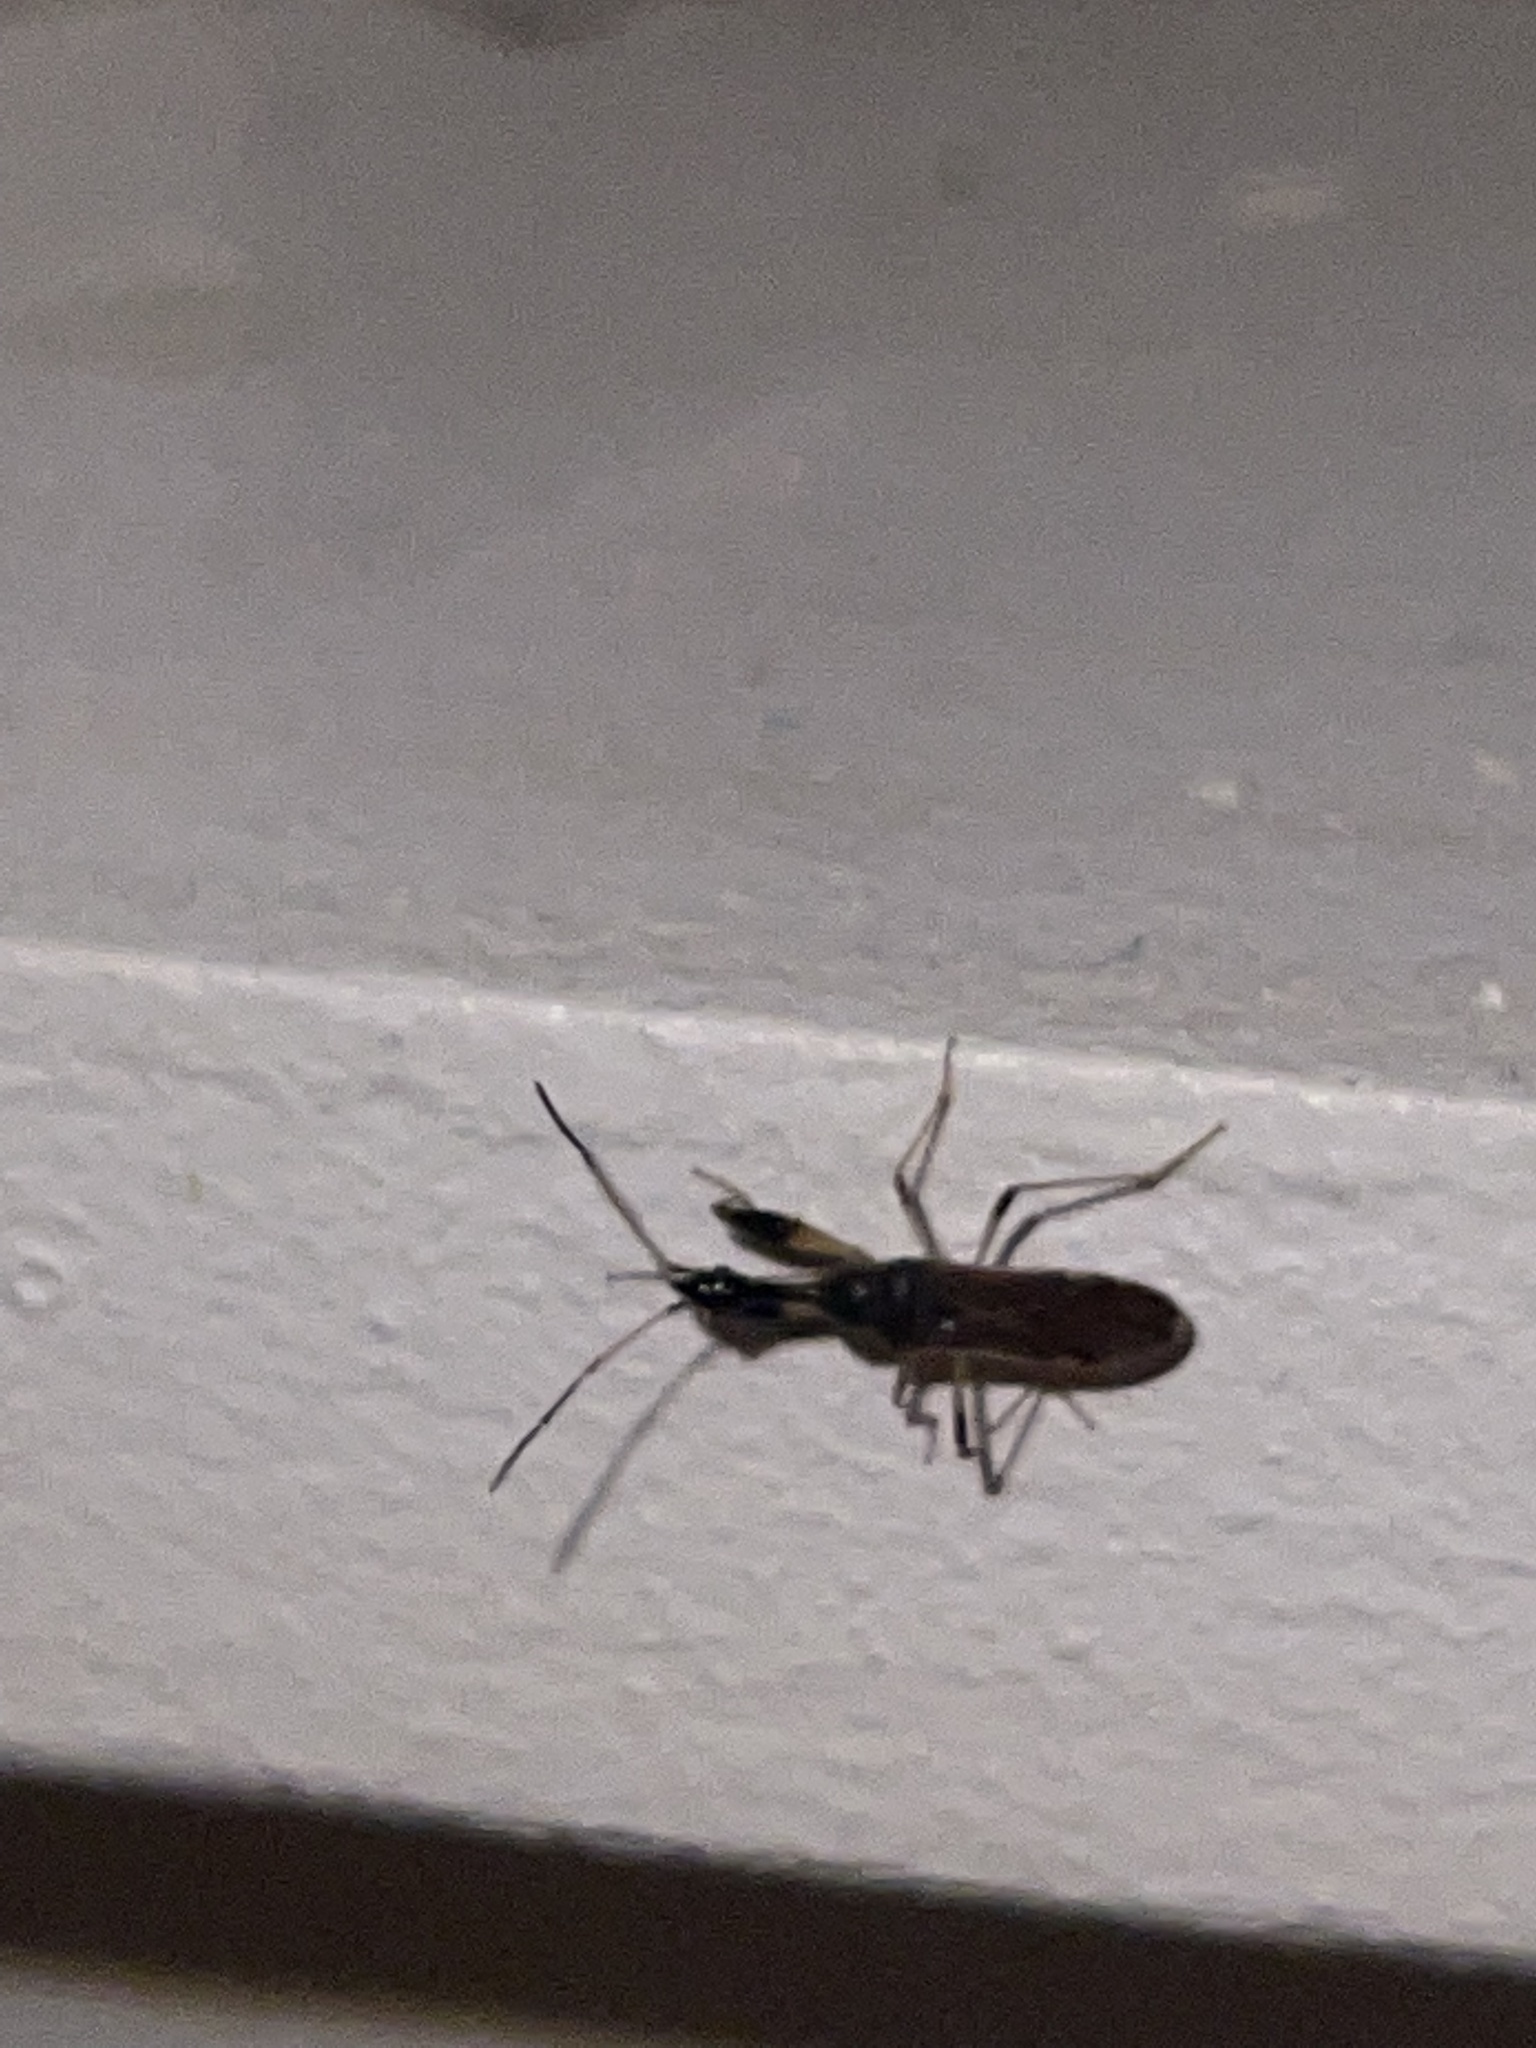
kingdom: Animalia
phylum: Arthropoda
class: Insecta
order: Hemiptera
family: Rhyparochromidae
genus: Myodocha
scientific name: Myodocha serripes
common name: Long-necked seed bug
